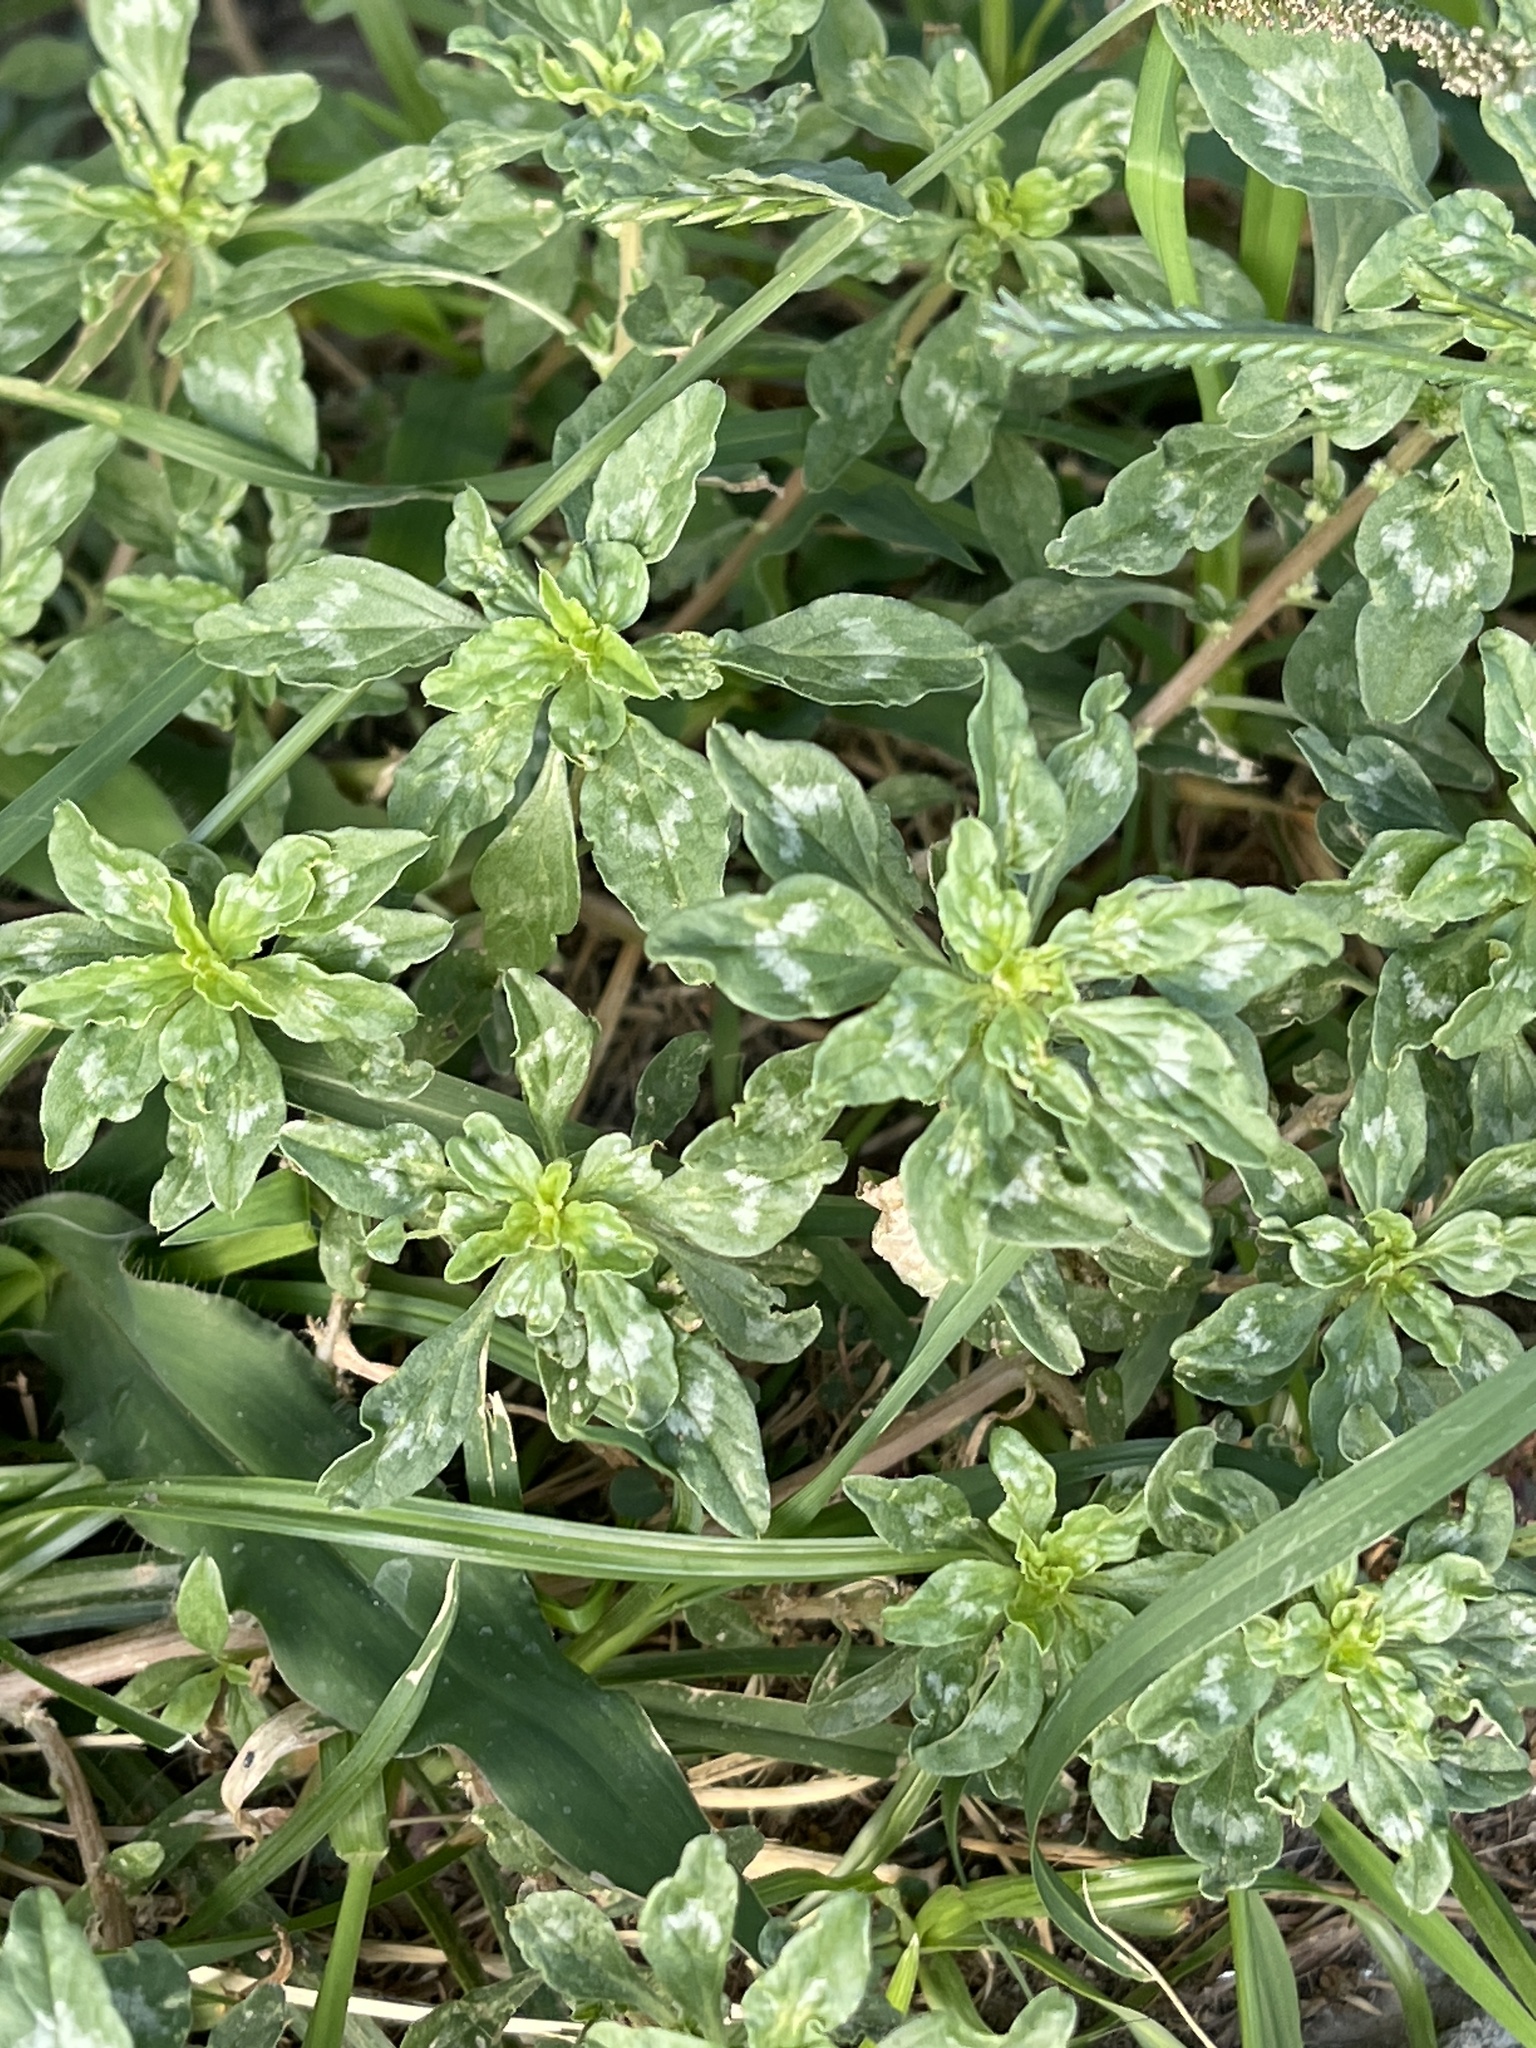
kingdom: Plantae
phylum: Tracheophyta
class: Magnoliopsida
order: Caryophyllales
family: Amaranthaceae
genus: Amaranthus
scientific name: Amaranthus polygonoides
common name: Tropical amaranth
